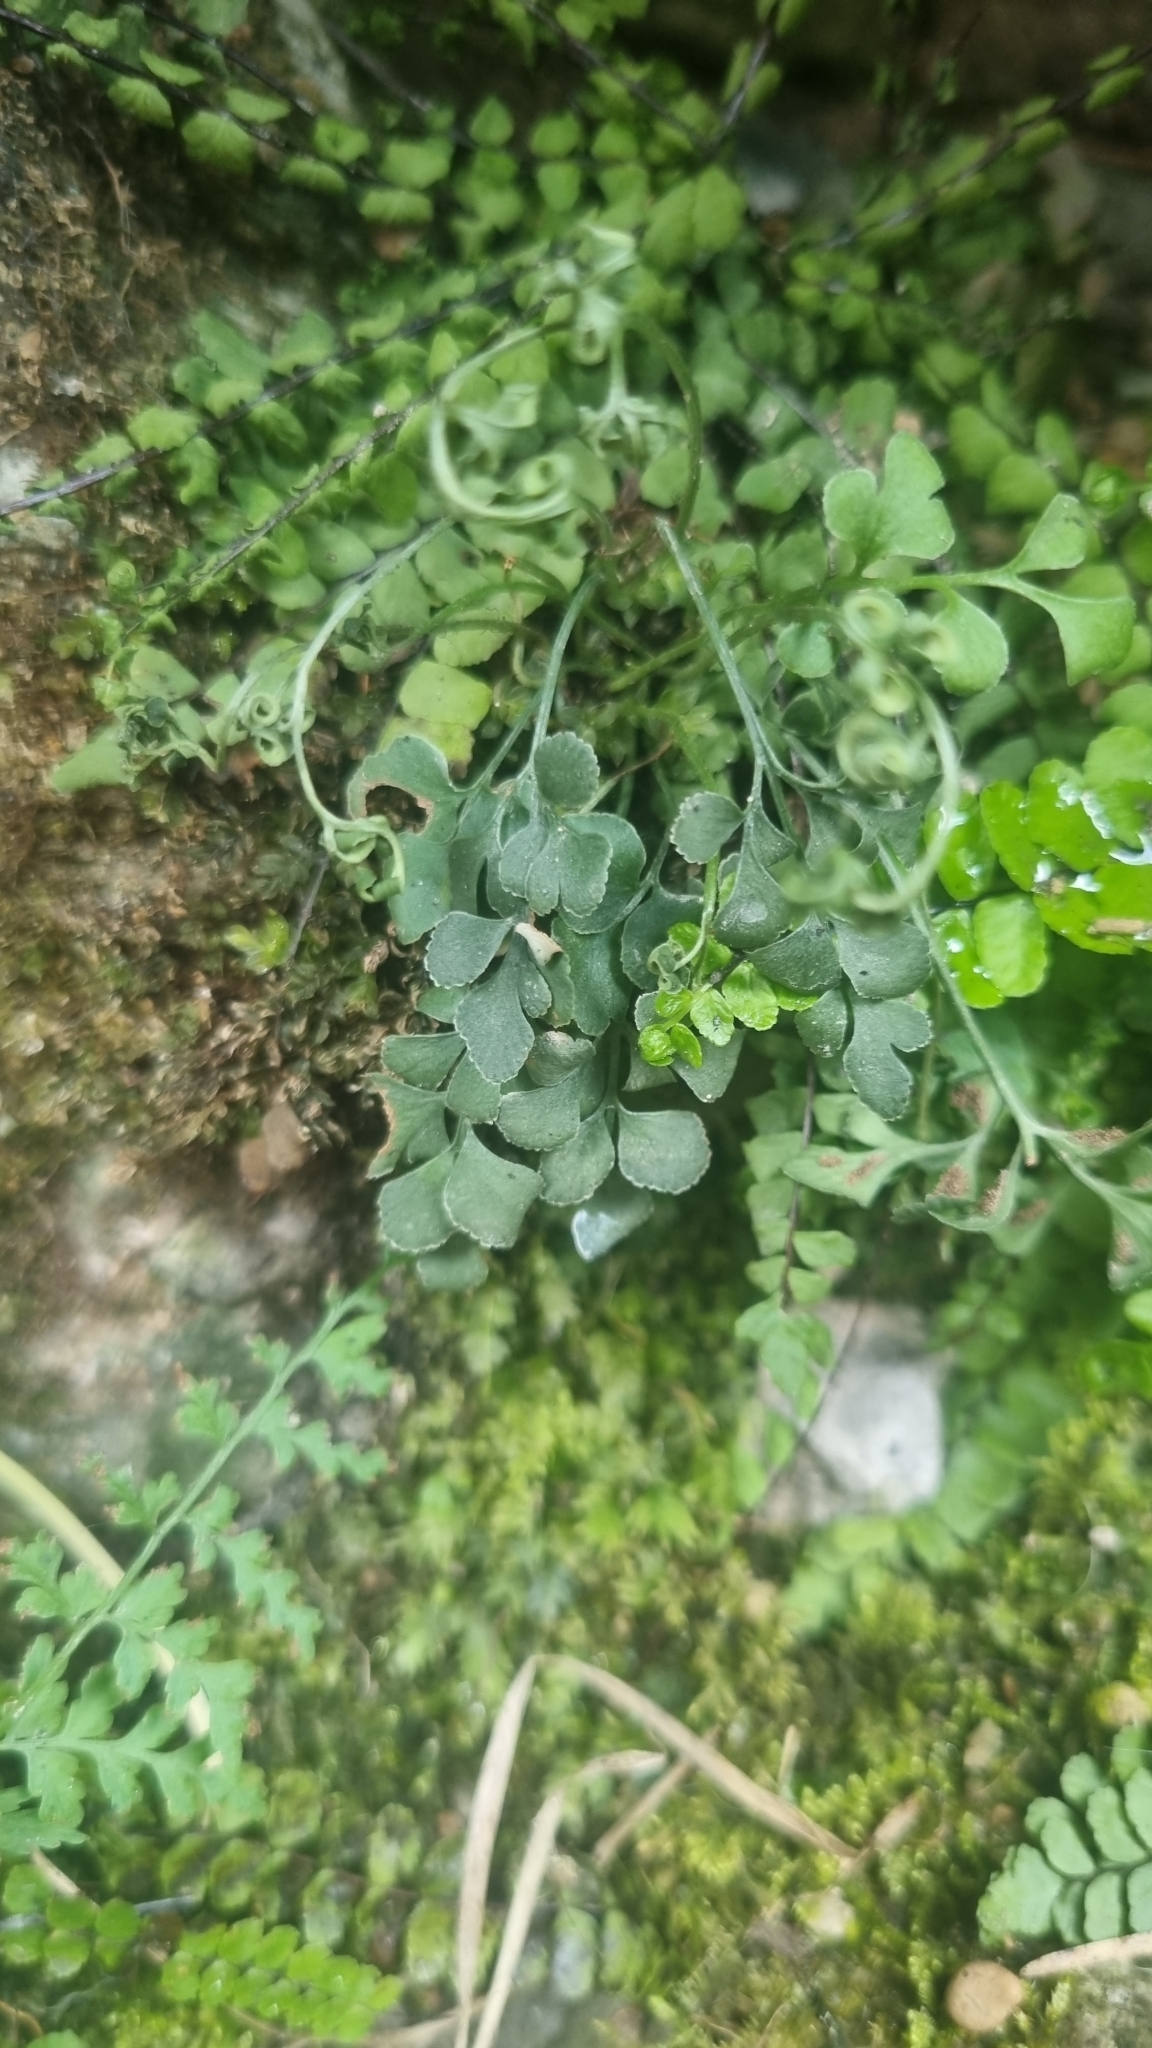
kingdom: Plantae
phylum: Tracheophyta
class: Polypodiopsida
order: Polypodiales
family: Aspleniaceae
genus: Asplenium
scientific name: Asplenium ruta-muraria
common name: Wall-rue
